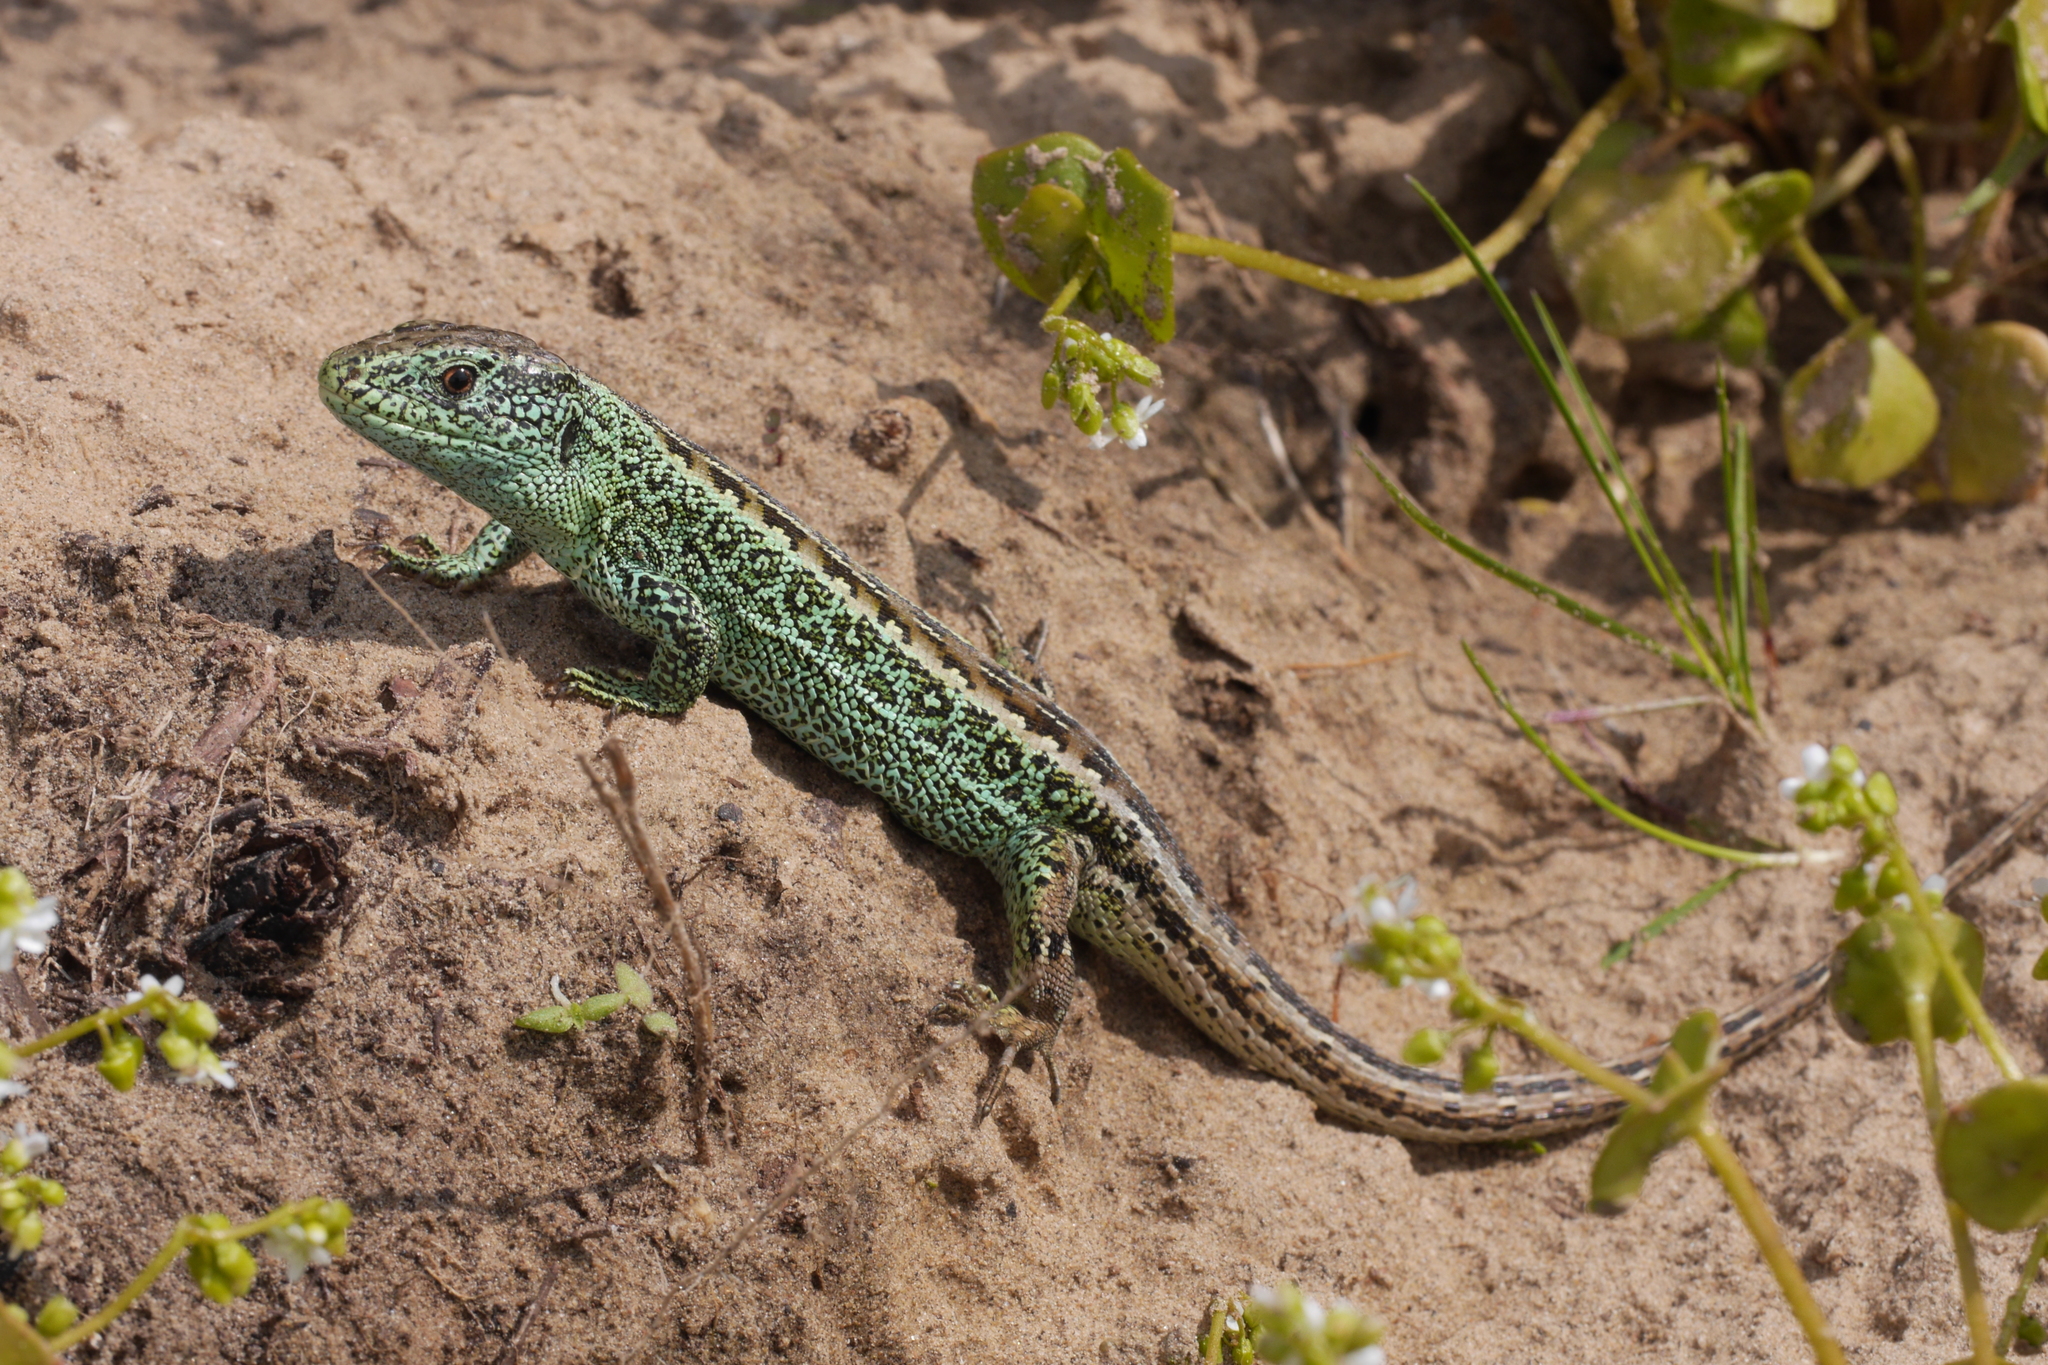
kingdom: Animalia
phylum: Chordata
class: Squamata
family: Lacertidae
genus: Lacerta
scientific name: Lacerta agilis
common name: Sand lizard
